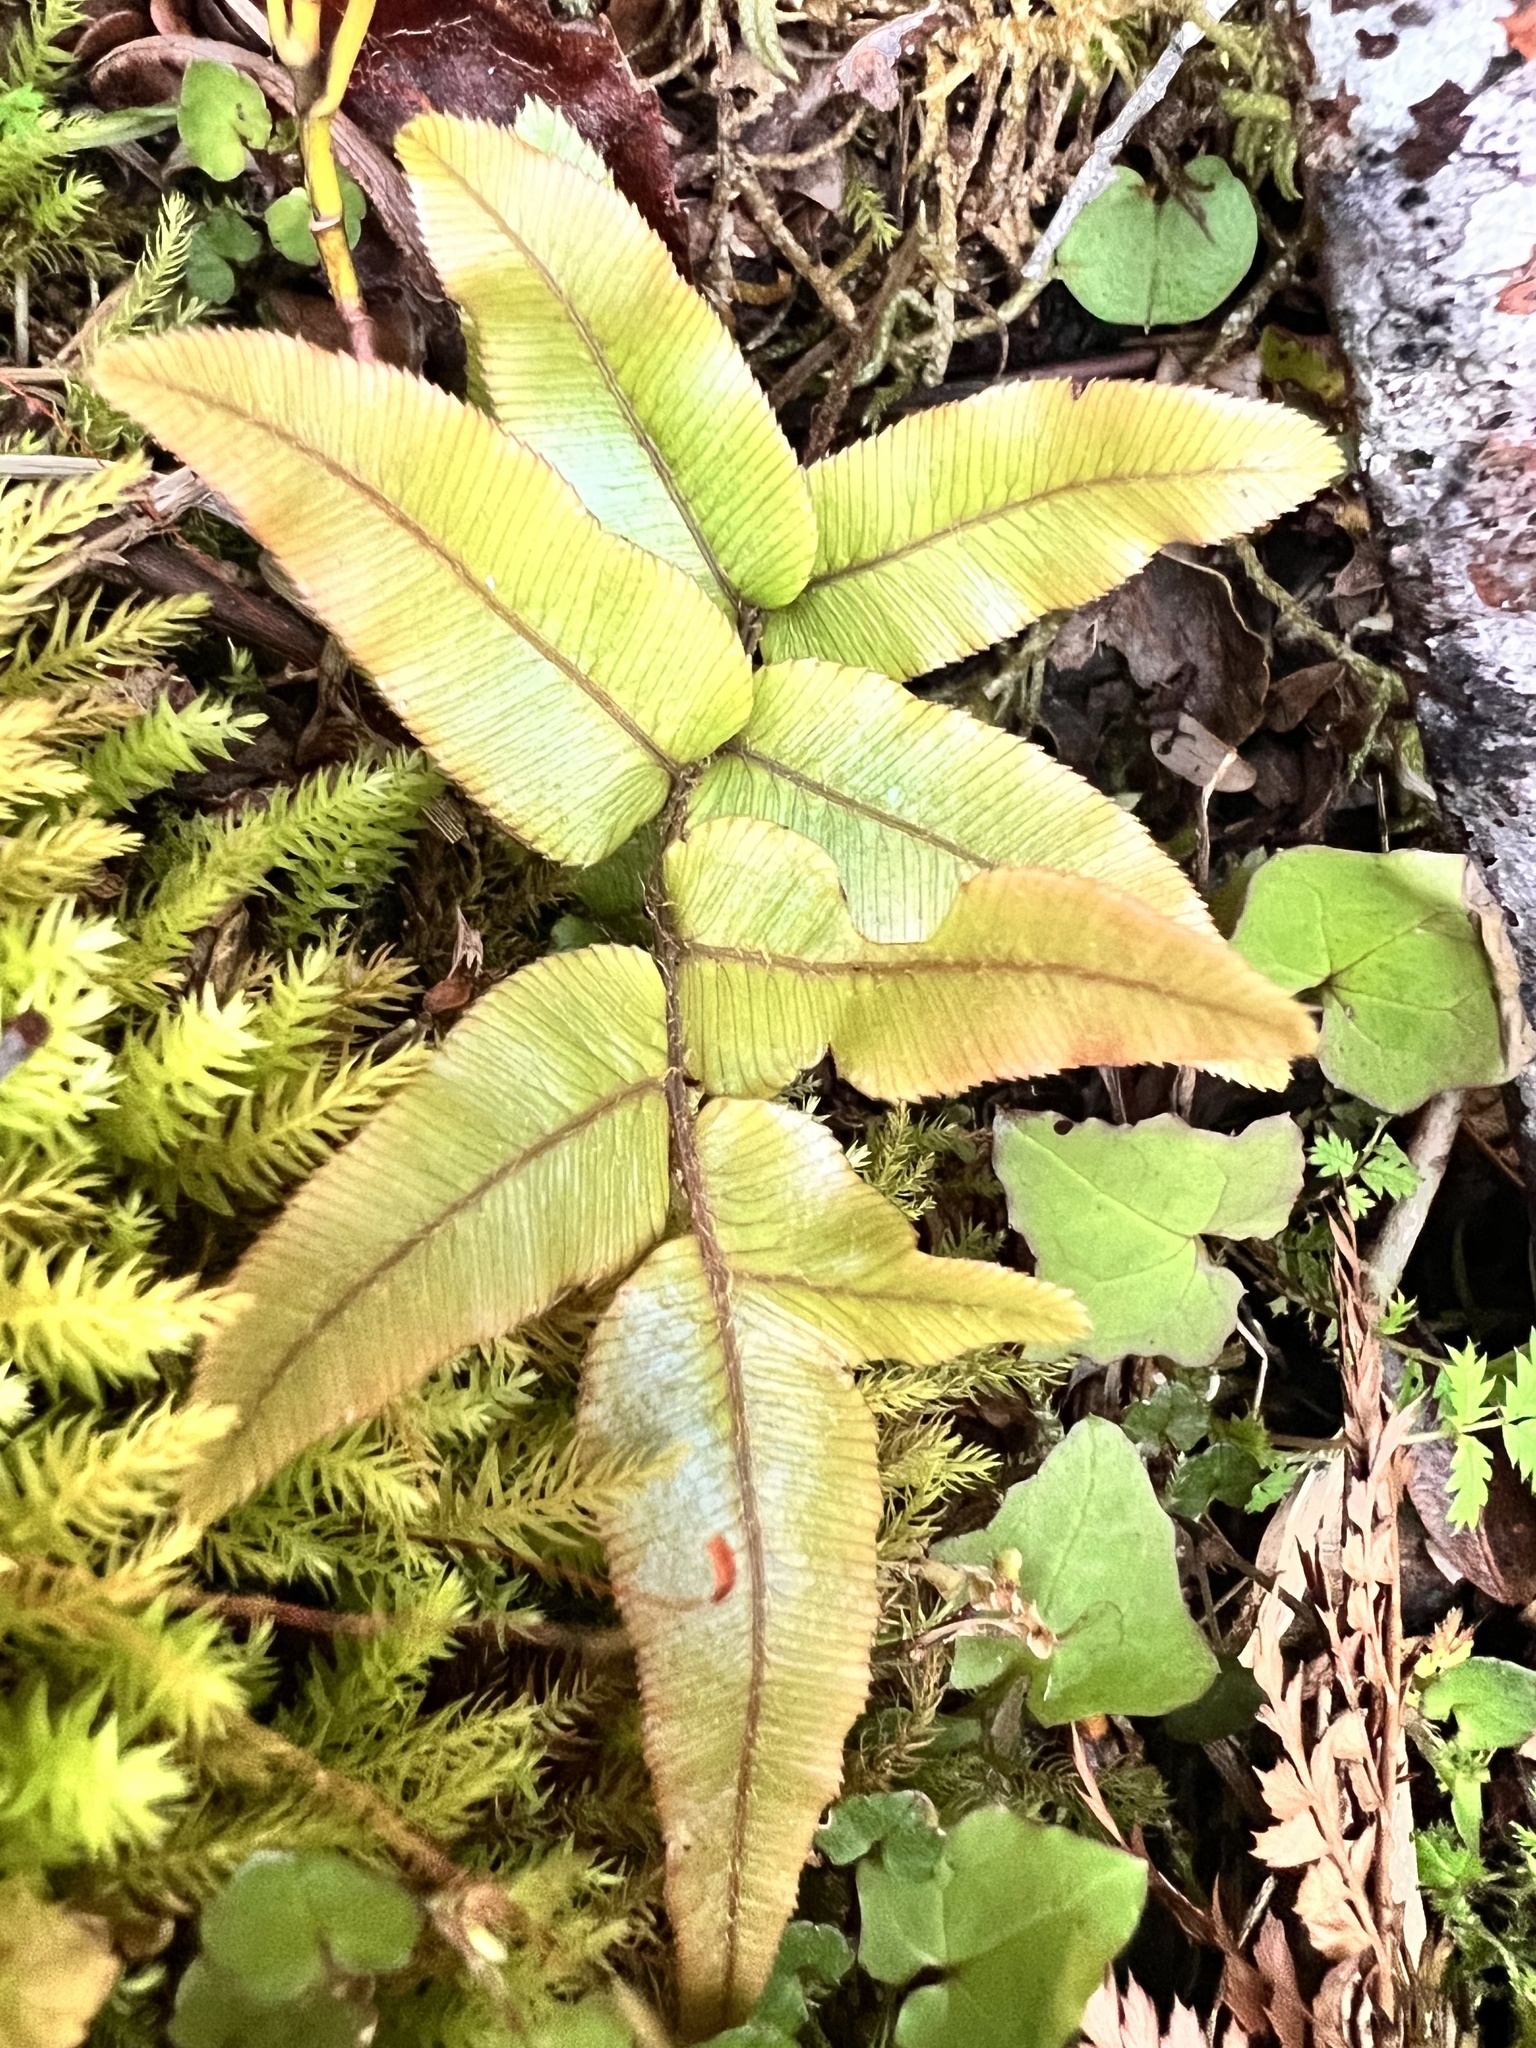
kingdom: Plantae
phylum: Tracheophyta
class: Polypodiopsida
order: Polypodiales
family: Blechnaceae
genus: Parablechnum
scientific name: Parablechnum procerum
